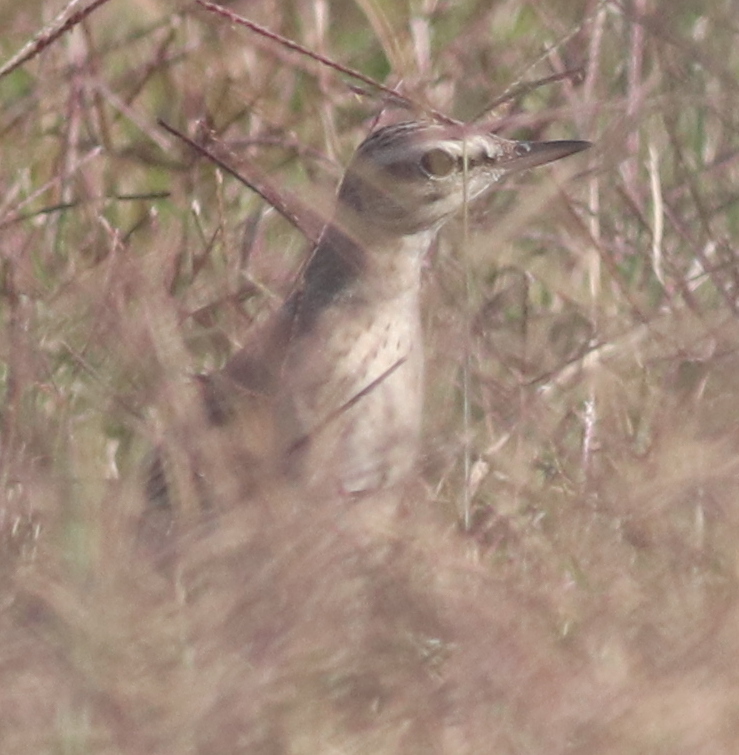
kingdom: Animalia
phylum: Chordata
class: Aves
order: Passeriformes
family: Motacillidae
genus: Anthus
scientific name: Anthus campestris
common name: Tawny pipit
